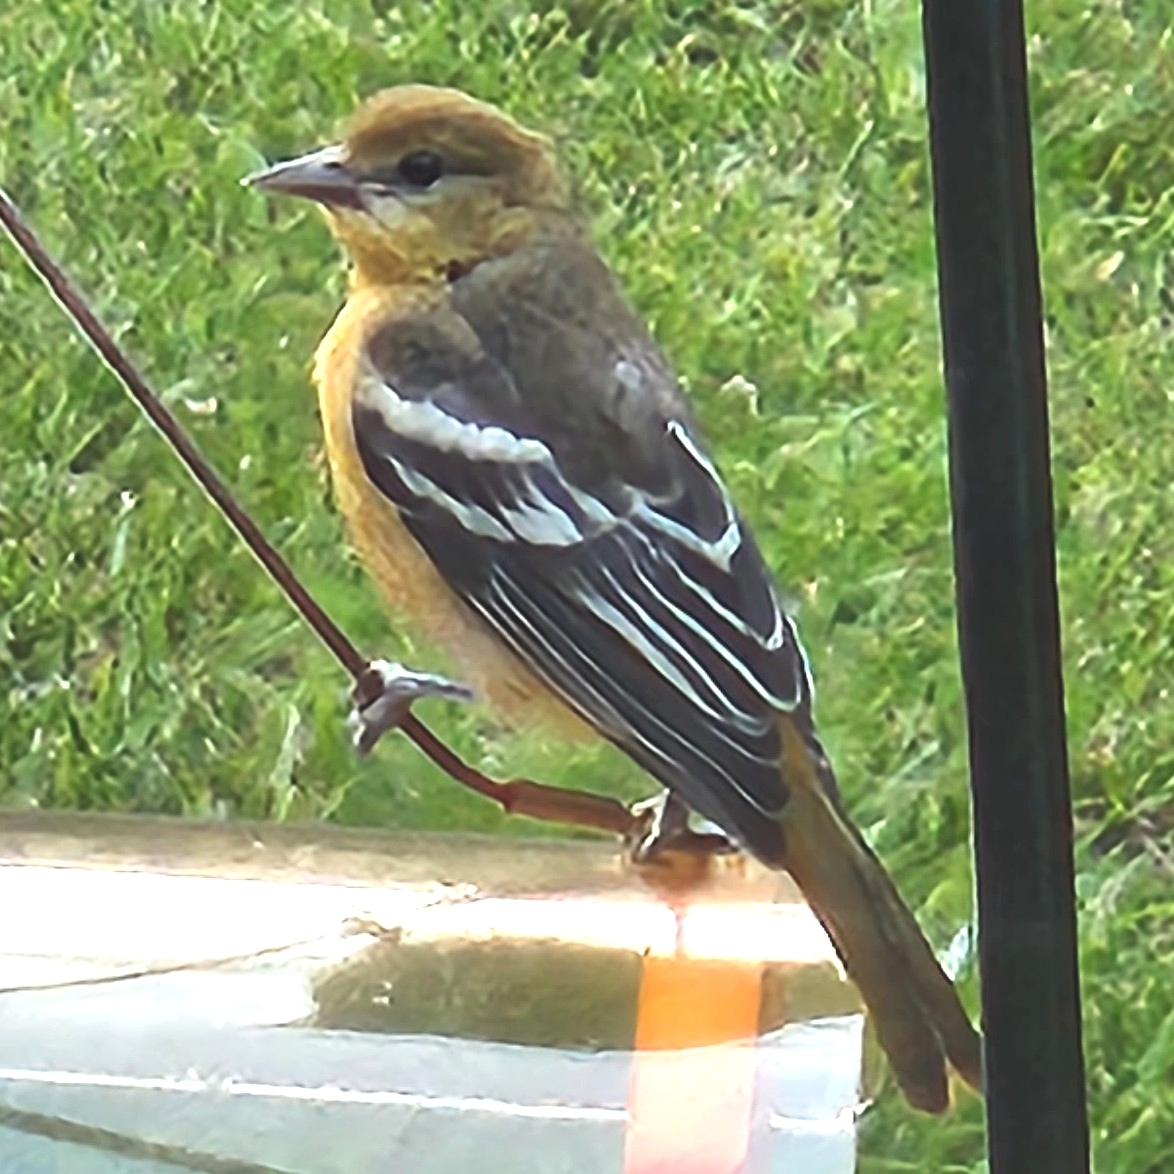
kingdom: Animalia
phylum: Chordata
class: Aves
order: Passeriformes
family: Icteridae
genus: Icterus
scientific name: Icterus galbula
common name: Baltimore oriole
